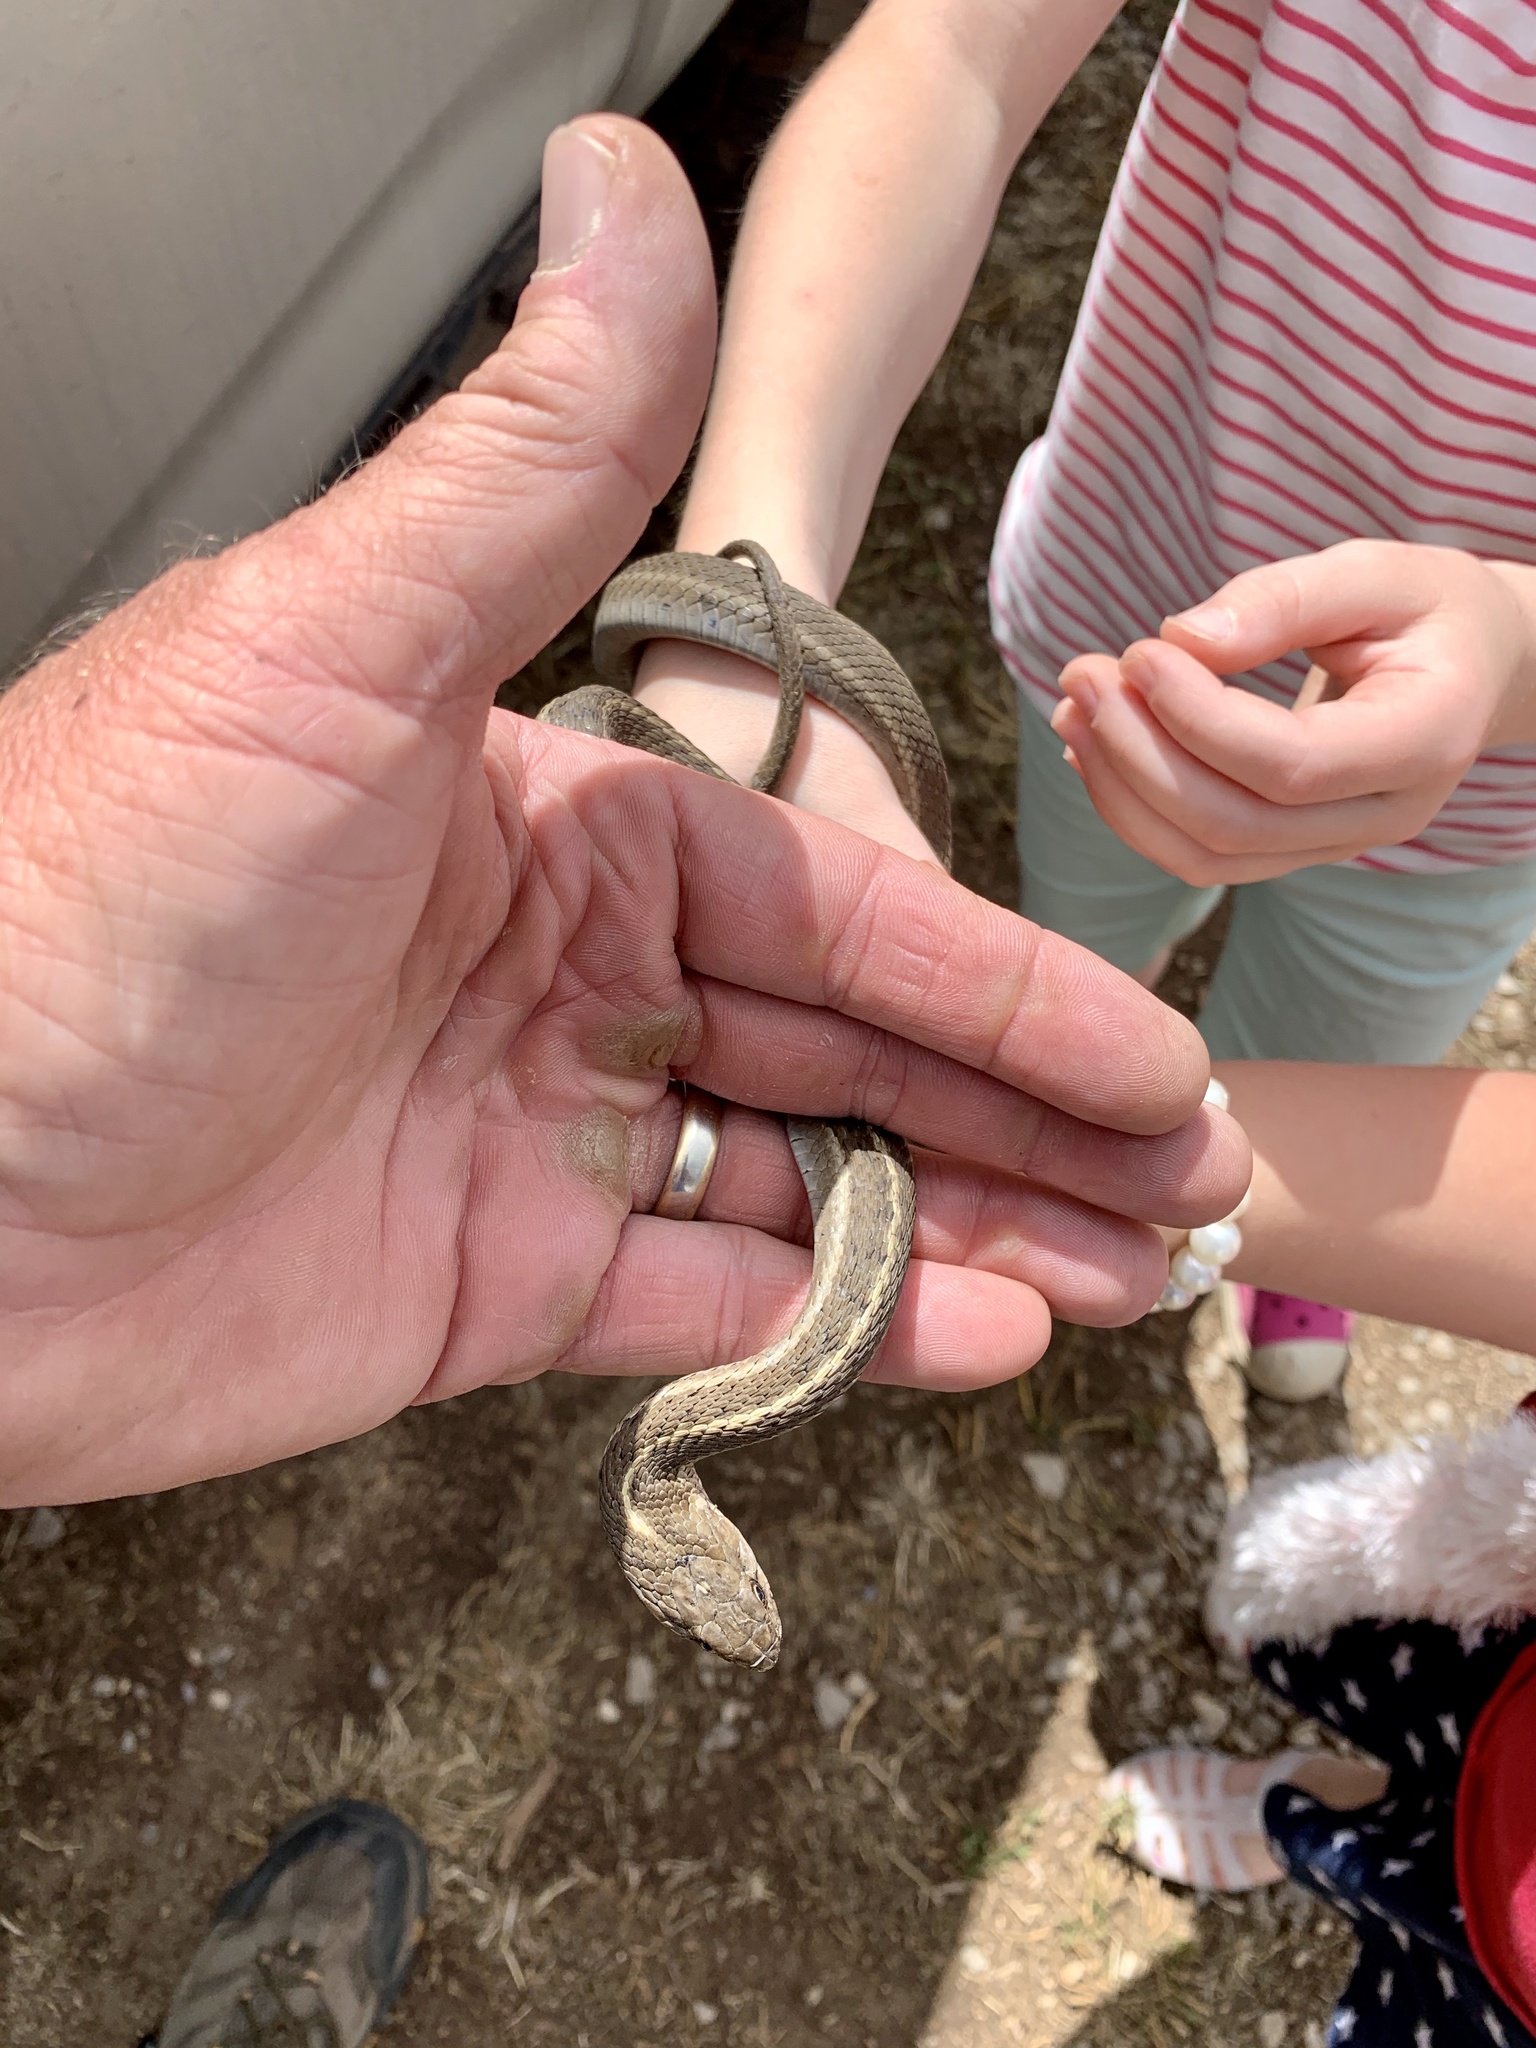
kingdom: Animalia
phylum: Chordata
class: Squamata
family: Colubridae
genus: Thamnophis
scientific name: Thamnophis elegans
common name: Western terrestrial garter snake
